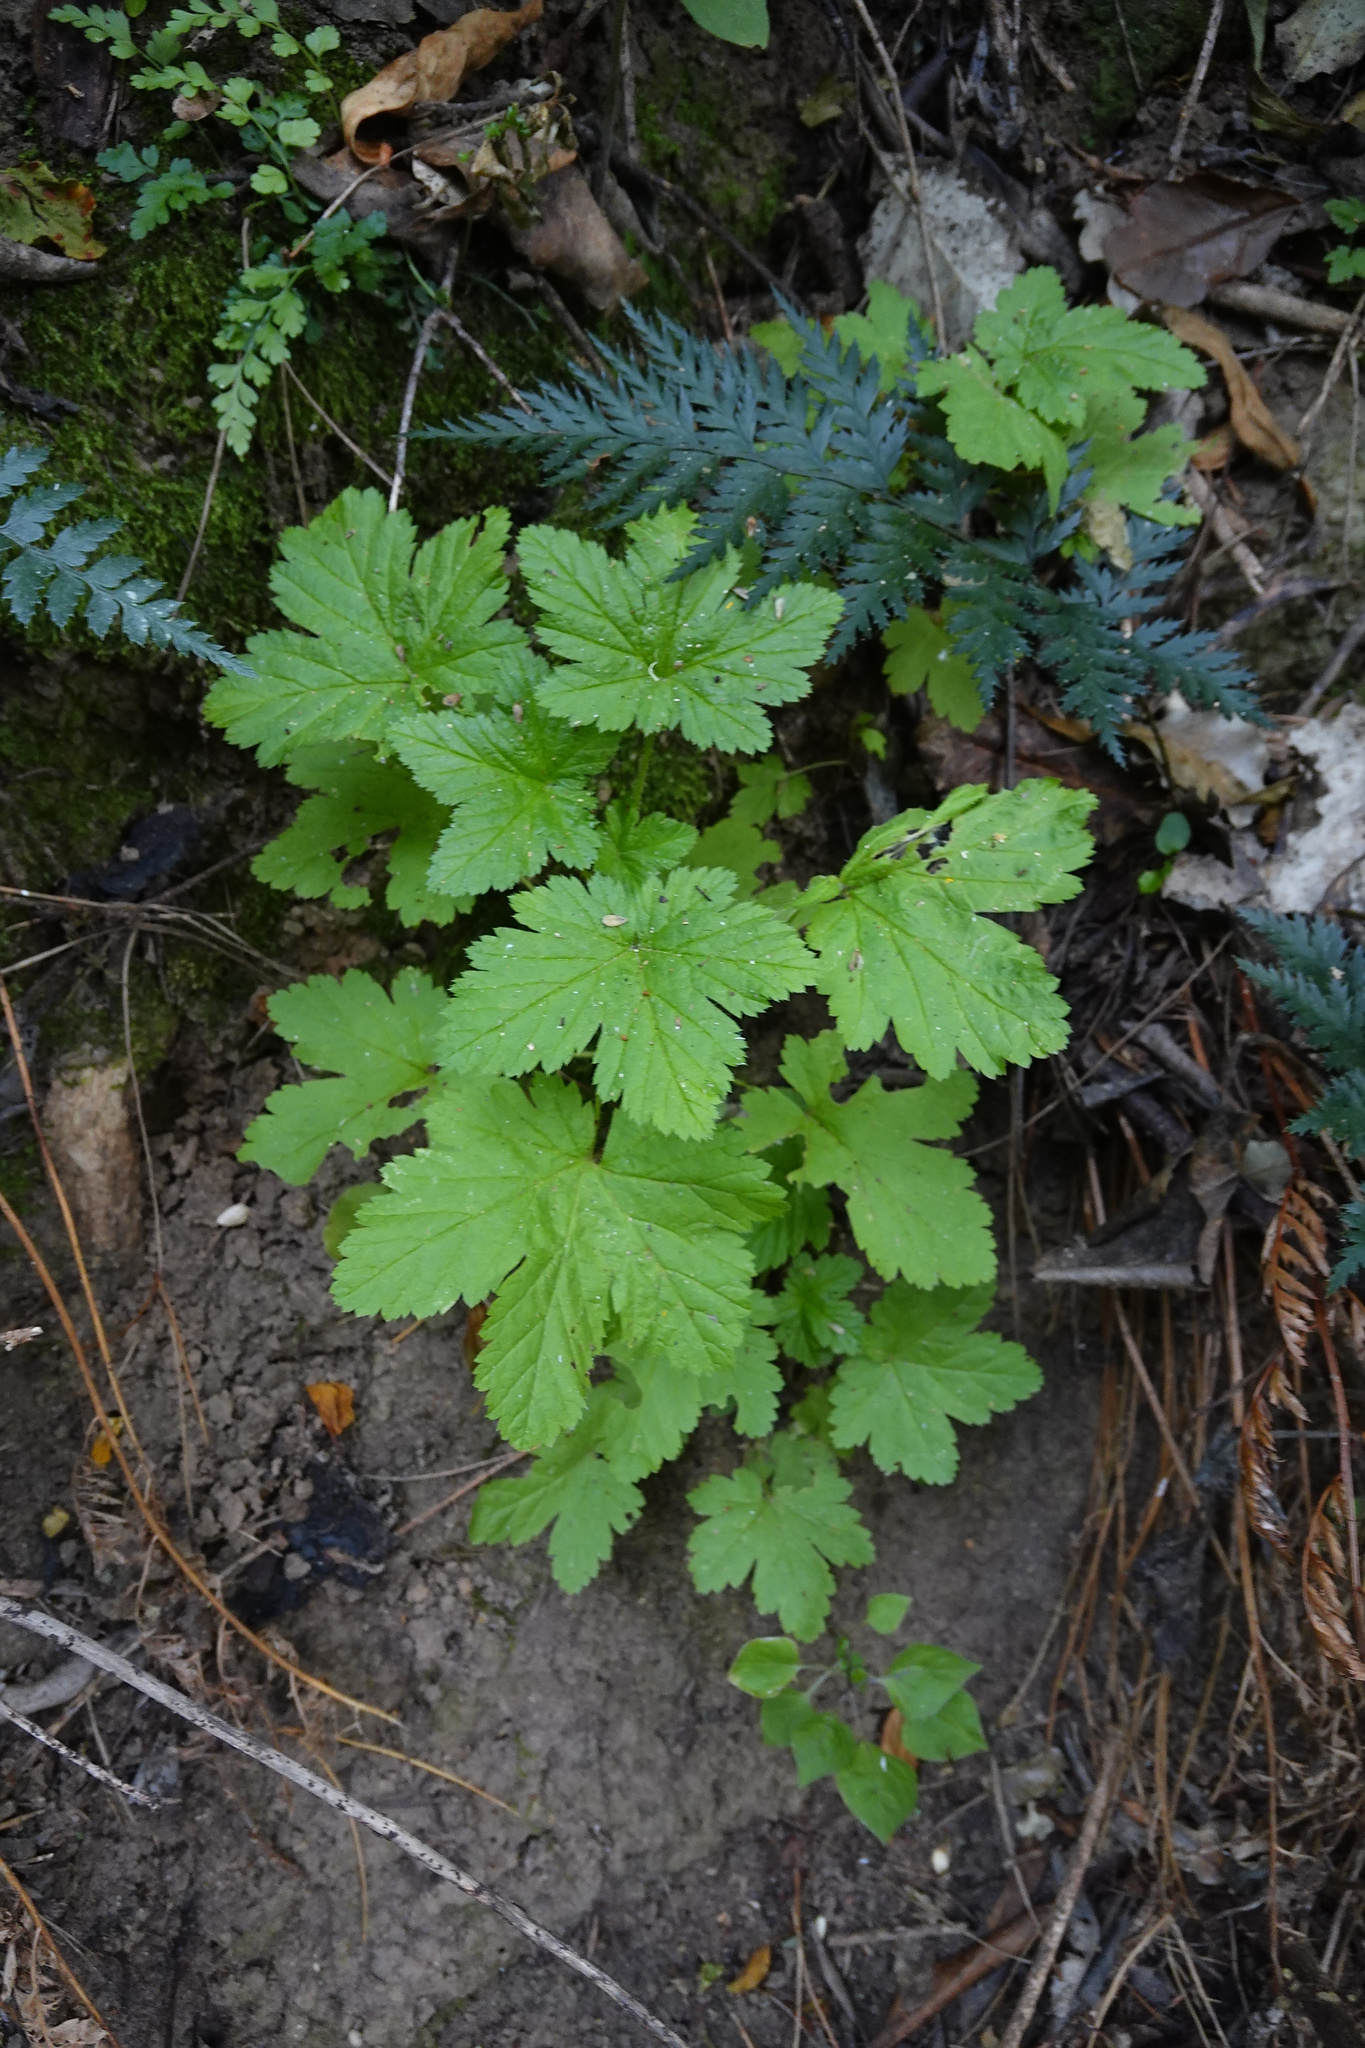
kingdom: Plantae
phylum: Tracheophyta
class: Magnoliopsida
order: Saxifragales
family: Grossulariaceae
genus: Ribes
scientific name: Ribes sanguineum
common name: Flowering currant
